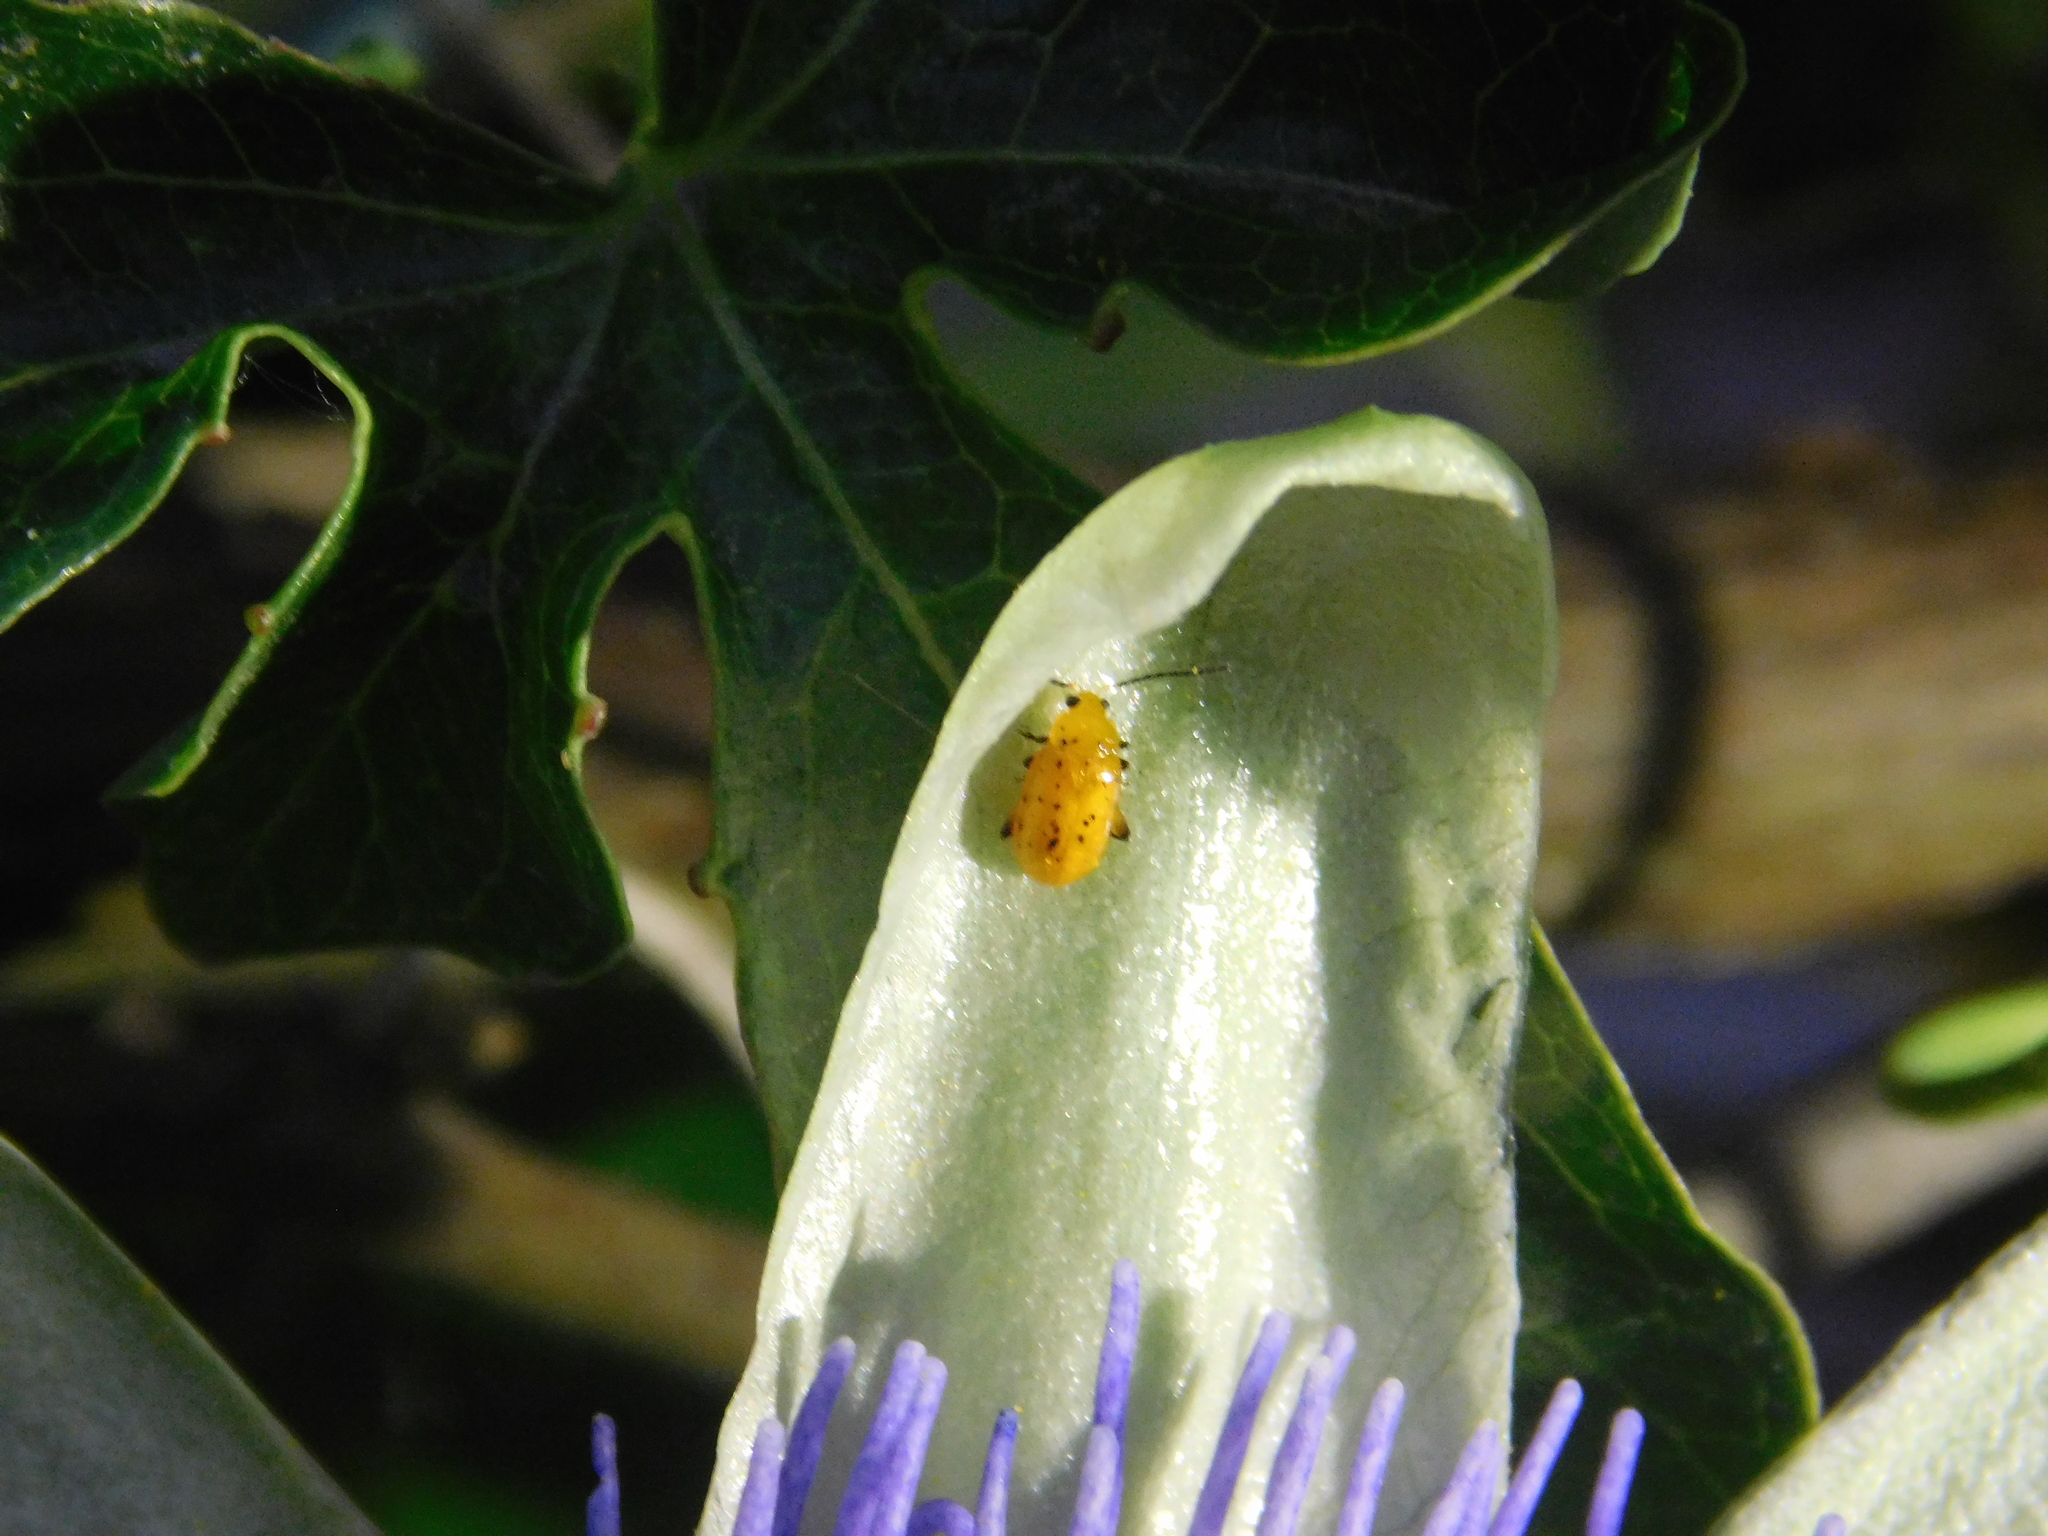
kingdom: Animalia
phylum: Arthropoda
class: Insecta
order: Coleoptera
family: Chrysomelidae
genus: Parchicola
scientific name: Parchicola
